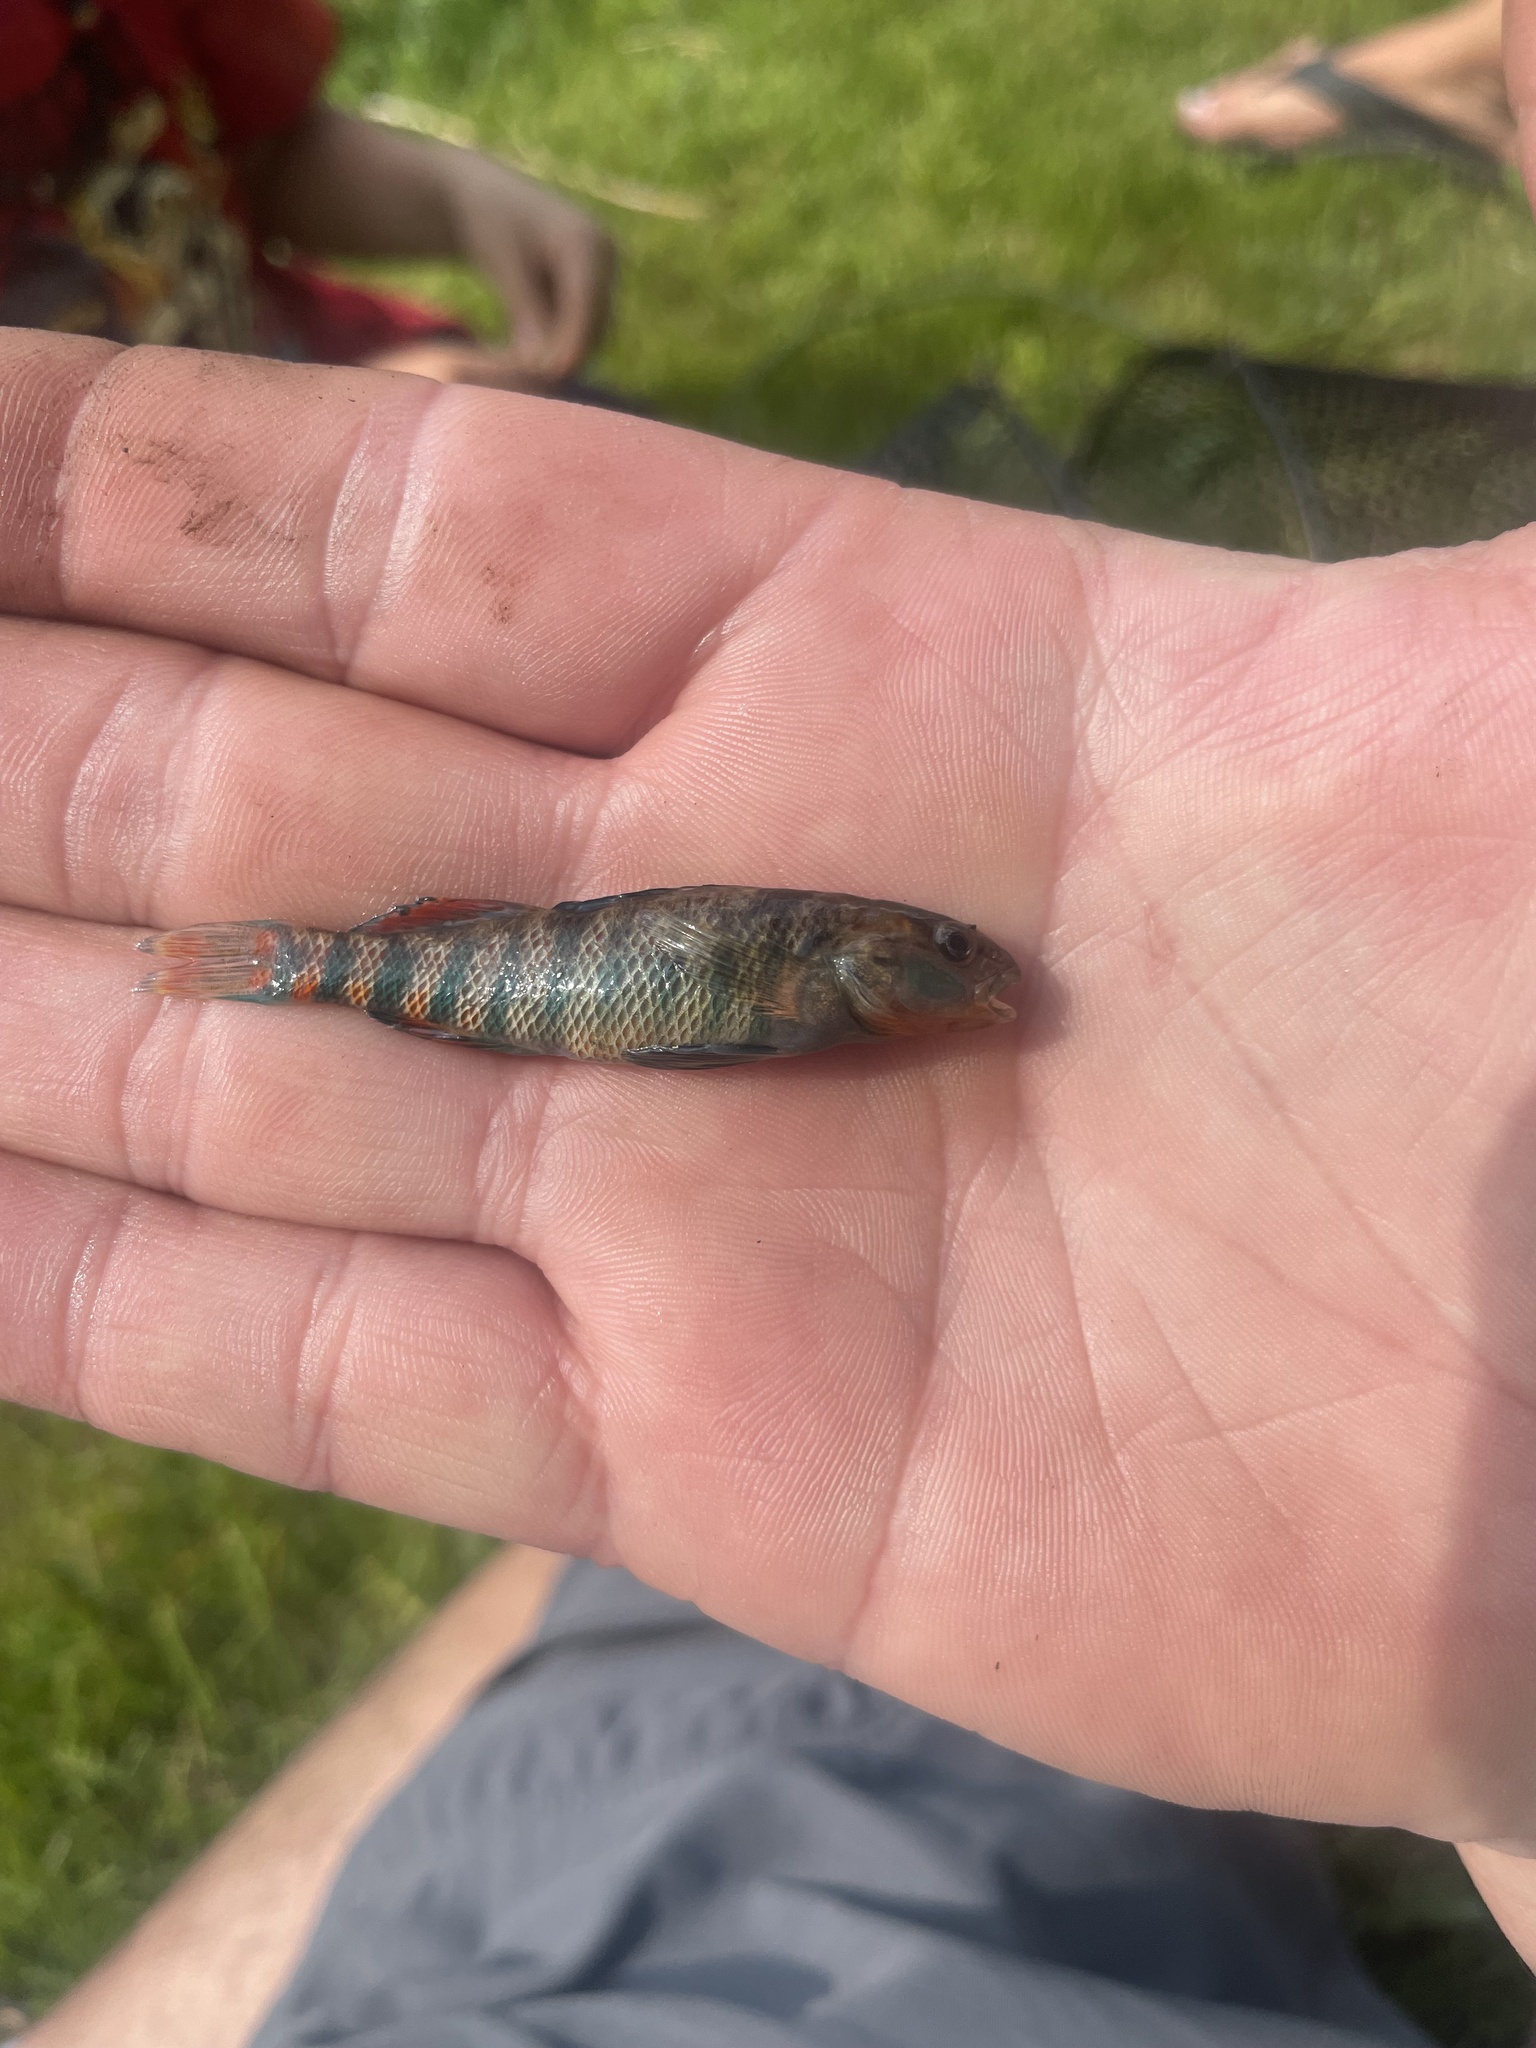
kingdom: Animalia
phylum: Chordata
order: Perciformes
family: Percidae
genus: Etheostoma
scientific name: Etheostoma caeruleum
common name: Rainbow darter
